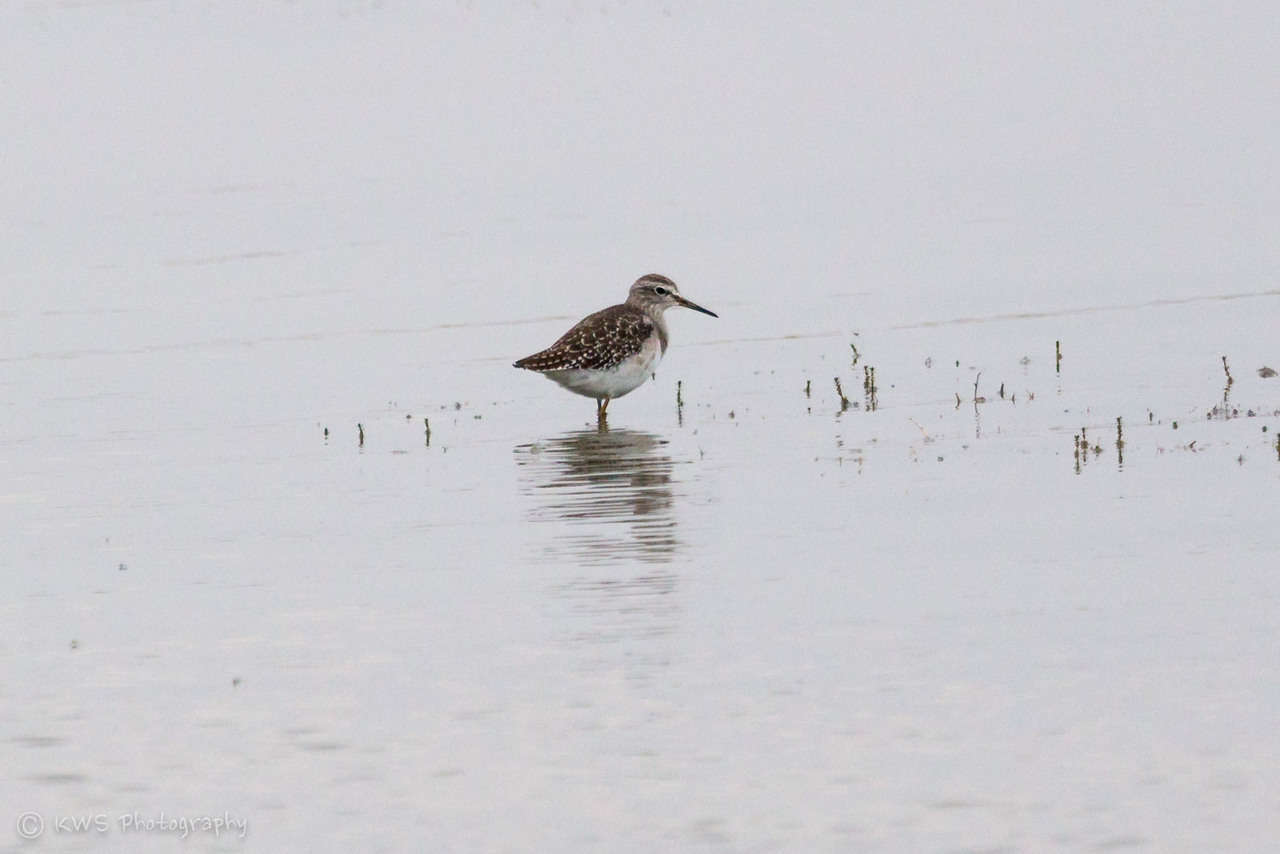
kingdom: Animalia
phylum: Chordata
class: Aves
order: Charadriiformes
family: Scolopacidae
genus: Tringa
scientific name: Tringa glareola
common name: Wood sandpiper
